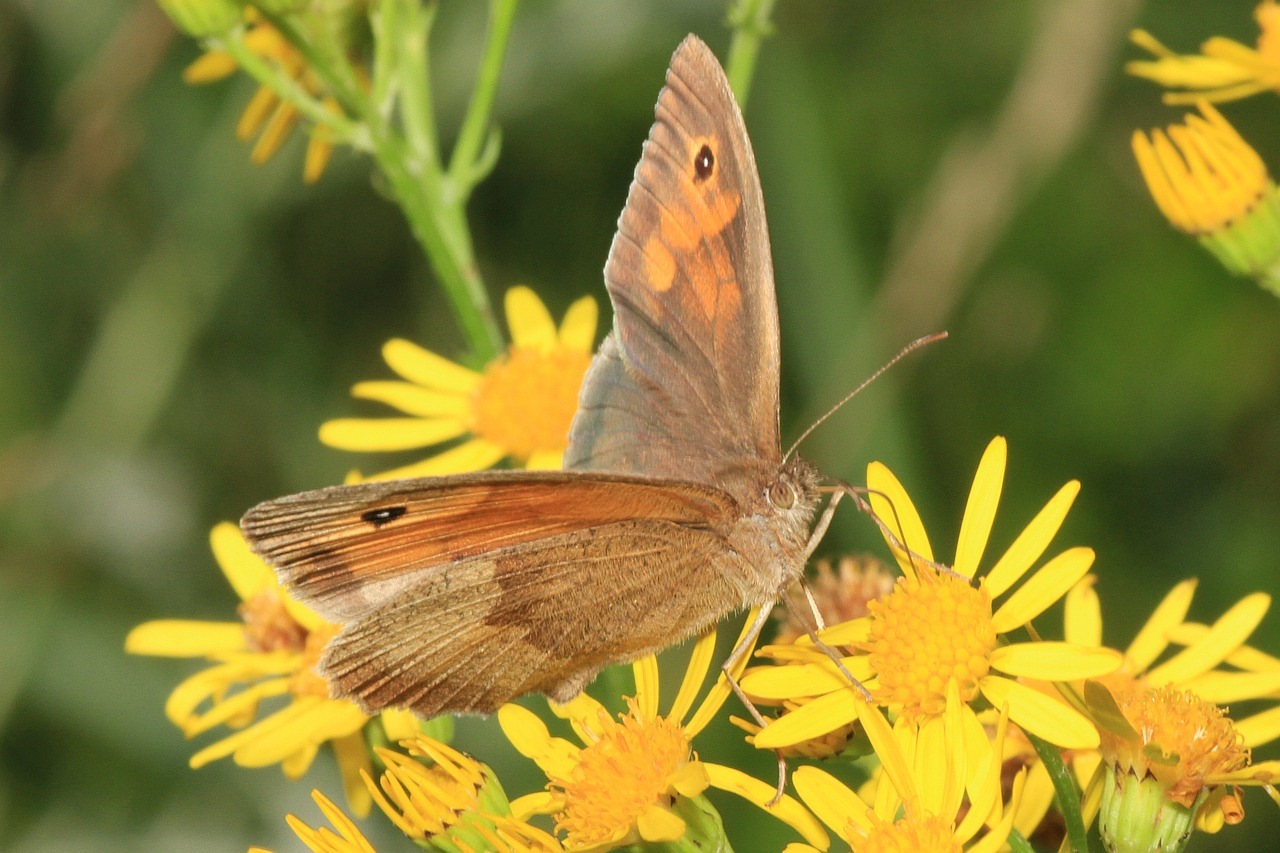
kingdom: Animalia
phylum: Arthropoda
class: Insecta
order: Lepidoptera
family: Nymphalidae
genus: Maniola
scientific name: Maniola jurtina
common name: Meadow brown
